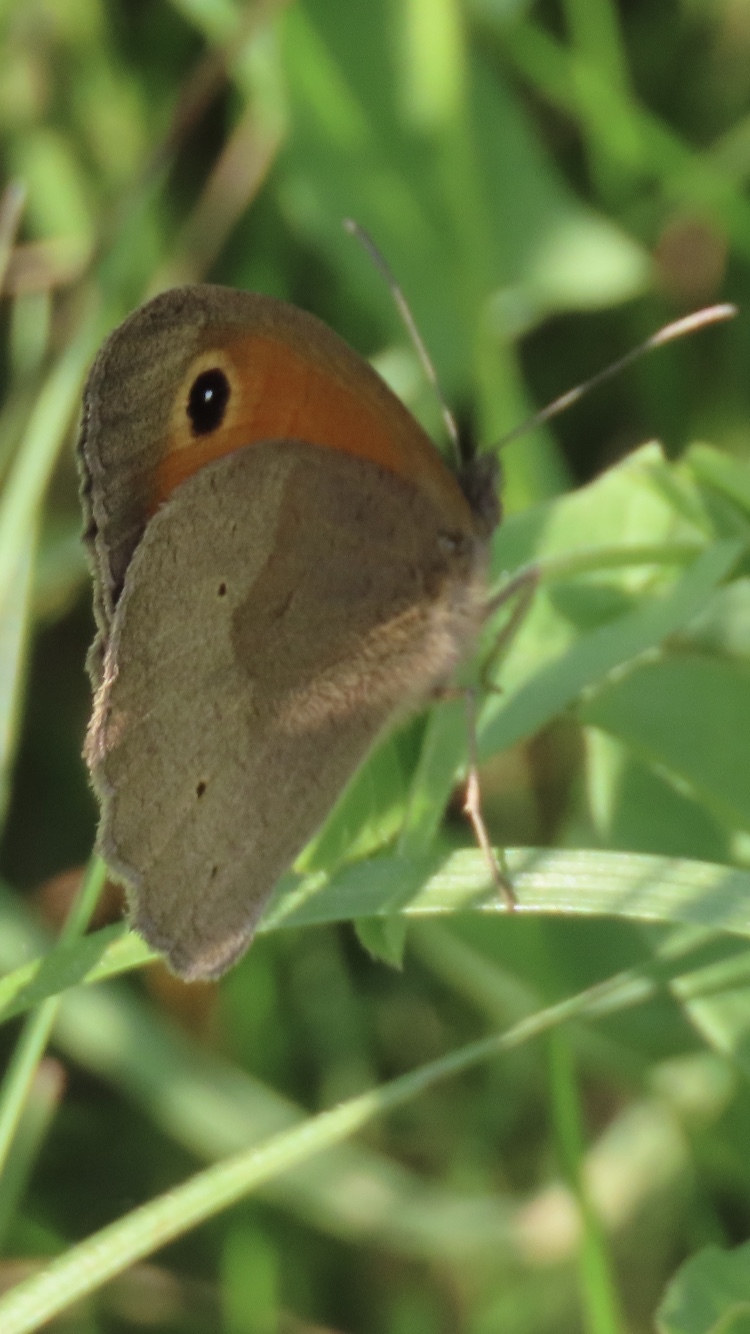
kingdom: Animalia
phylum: Arthropoda
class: Insecta
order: Lepidoptera
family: Nymphalidae
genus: Maniola
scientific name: Maniola jurtina
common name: Meadow brown
